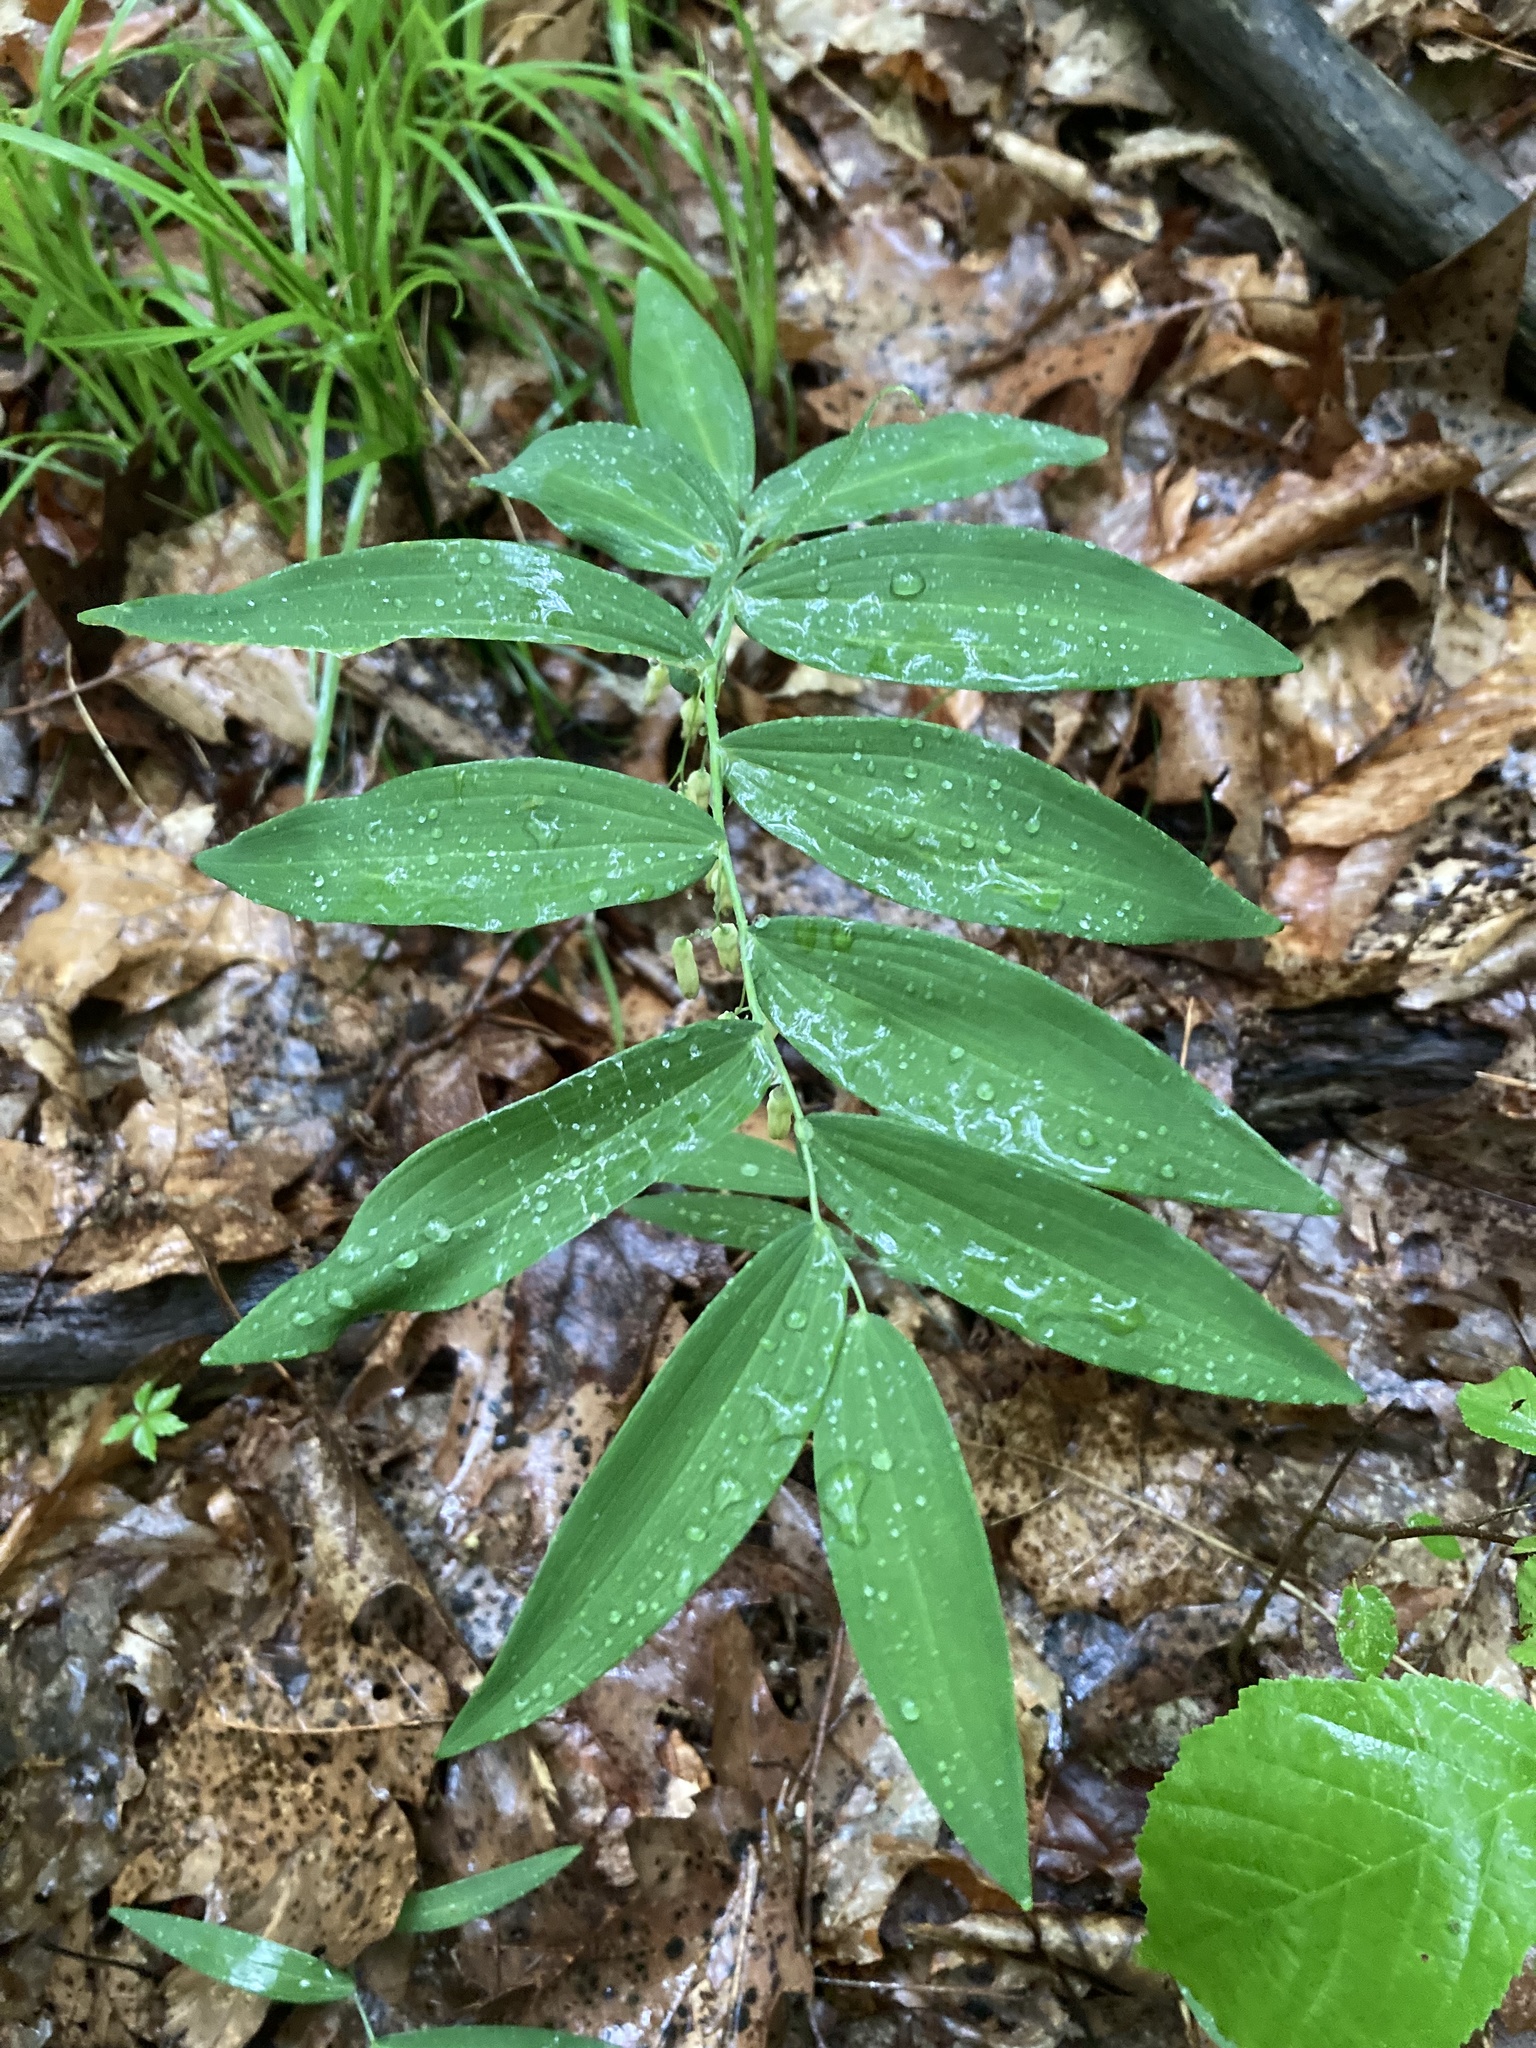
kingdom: Plantae
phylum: Tracheophyta
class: Liliopsida
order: Asparagales
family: Asparagaceae
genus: Polygonatum
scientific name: Polygonatum biflorum
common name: American solomon's-seal
